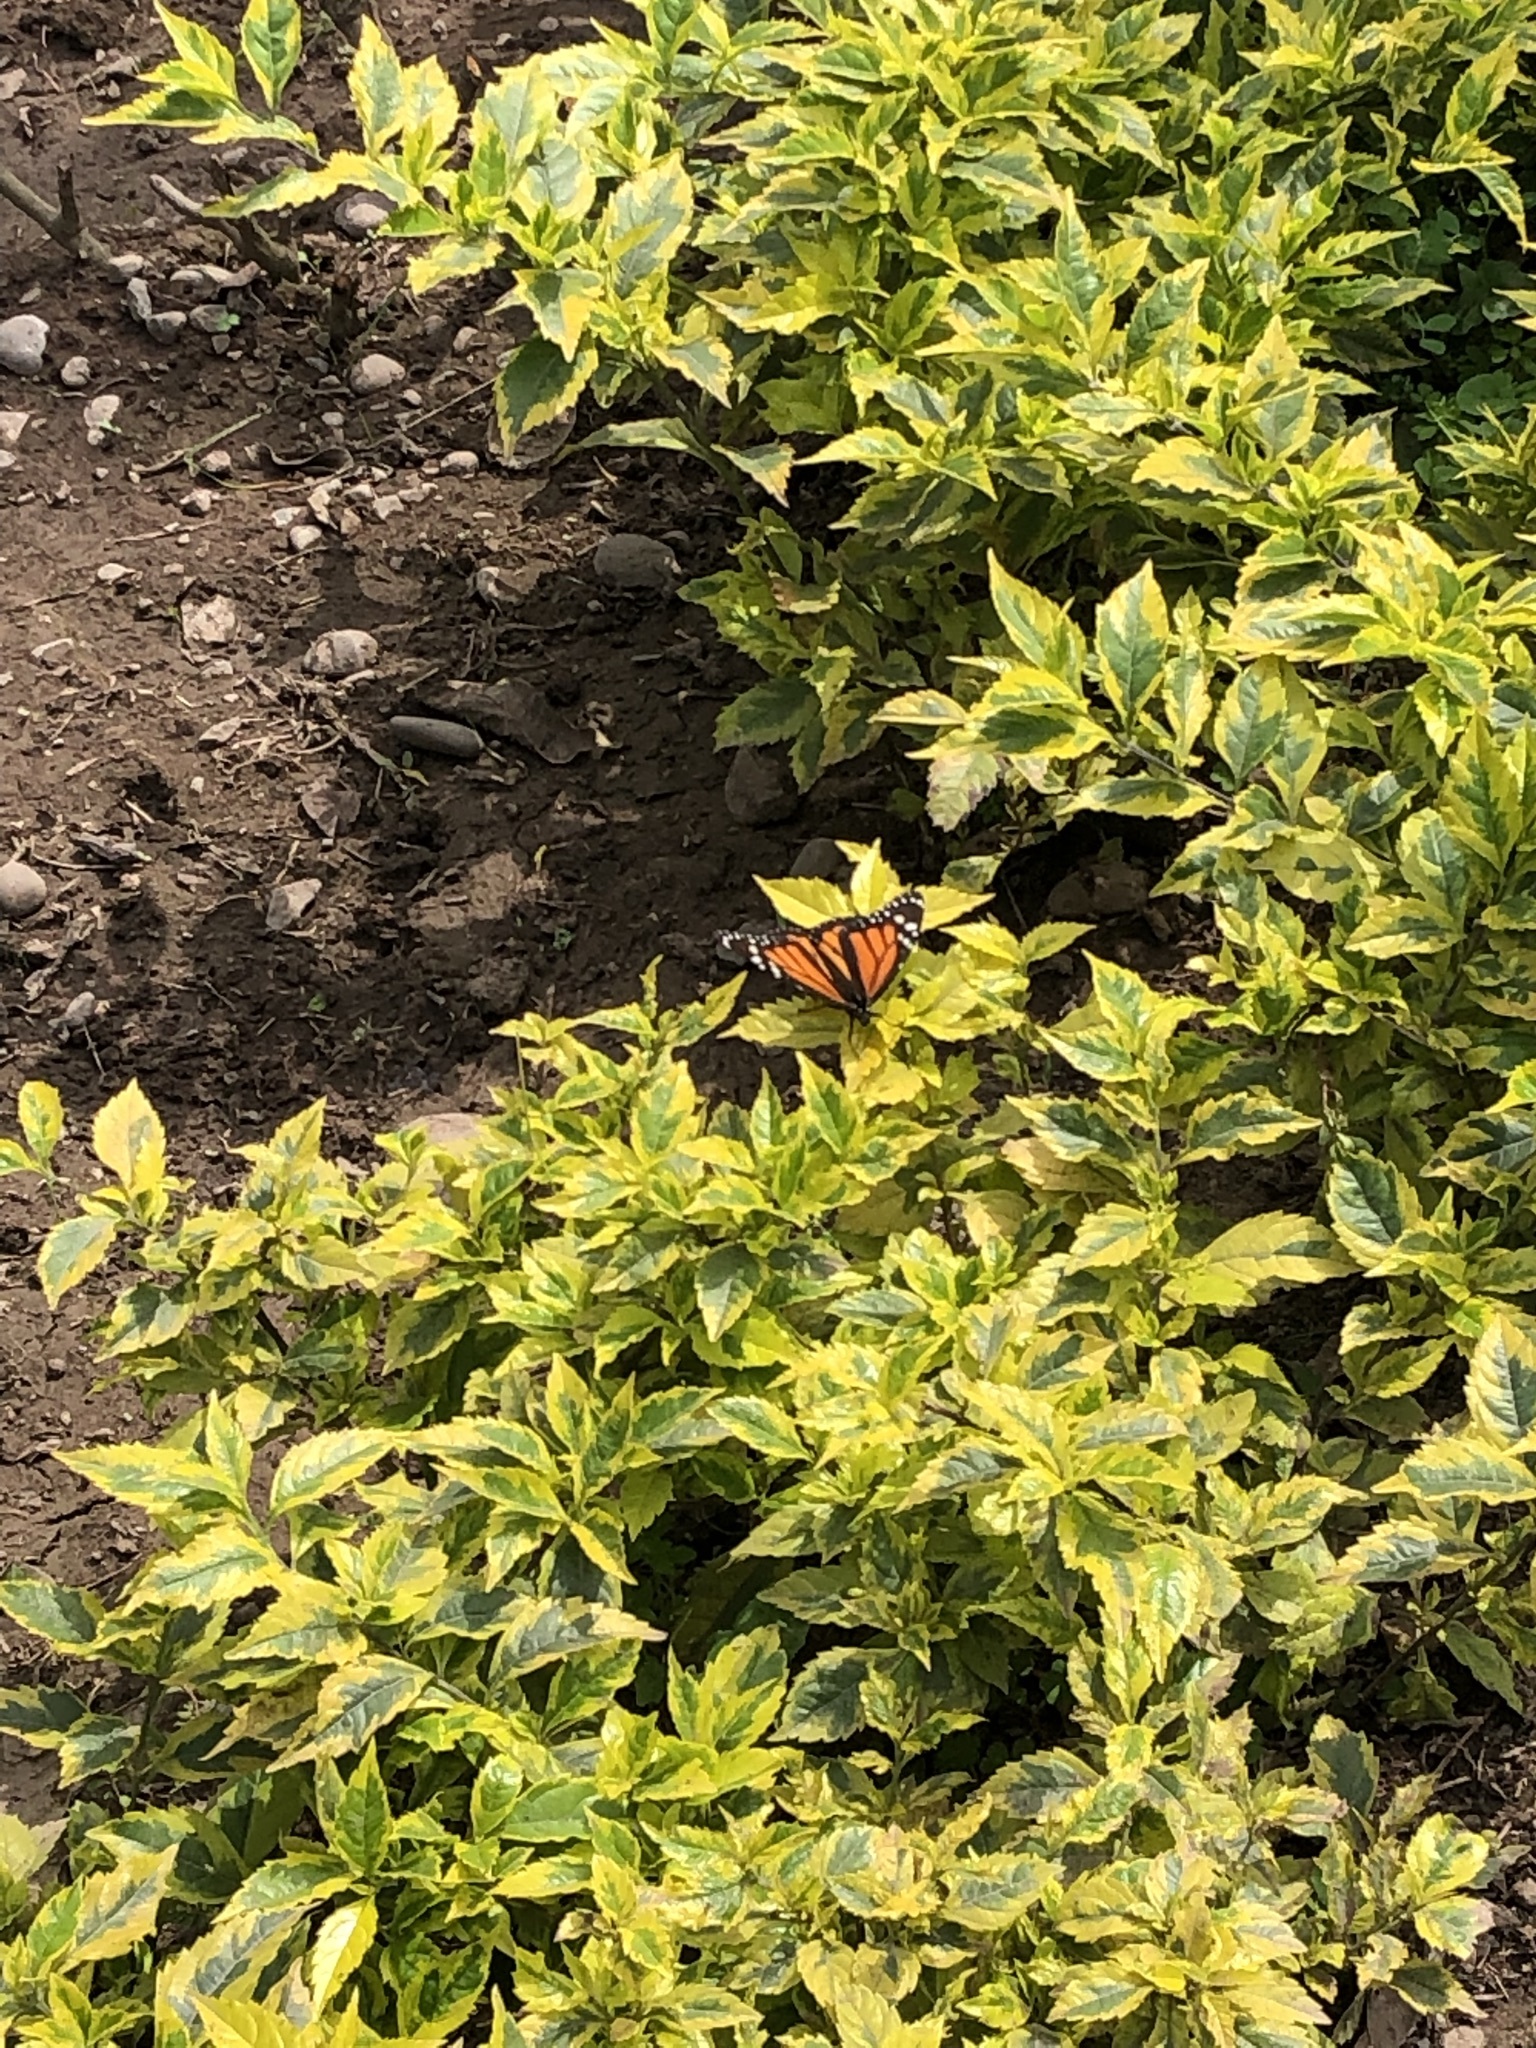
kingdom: Animalia
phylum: Arthropoda
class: Insecta
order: Lepidoptera
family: Nymphalidae
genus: Danaus
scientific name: Danaus plexippus
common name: Monarch
